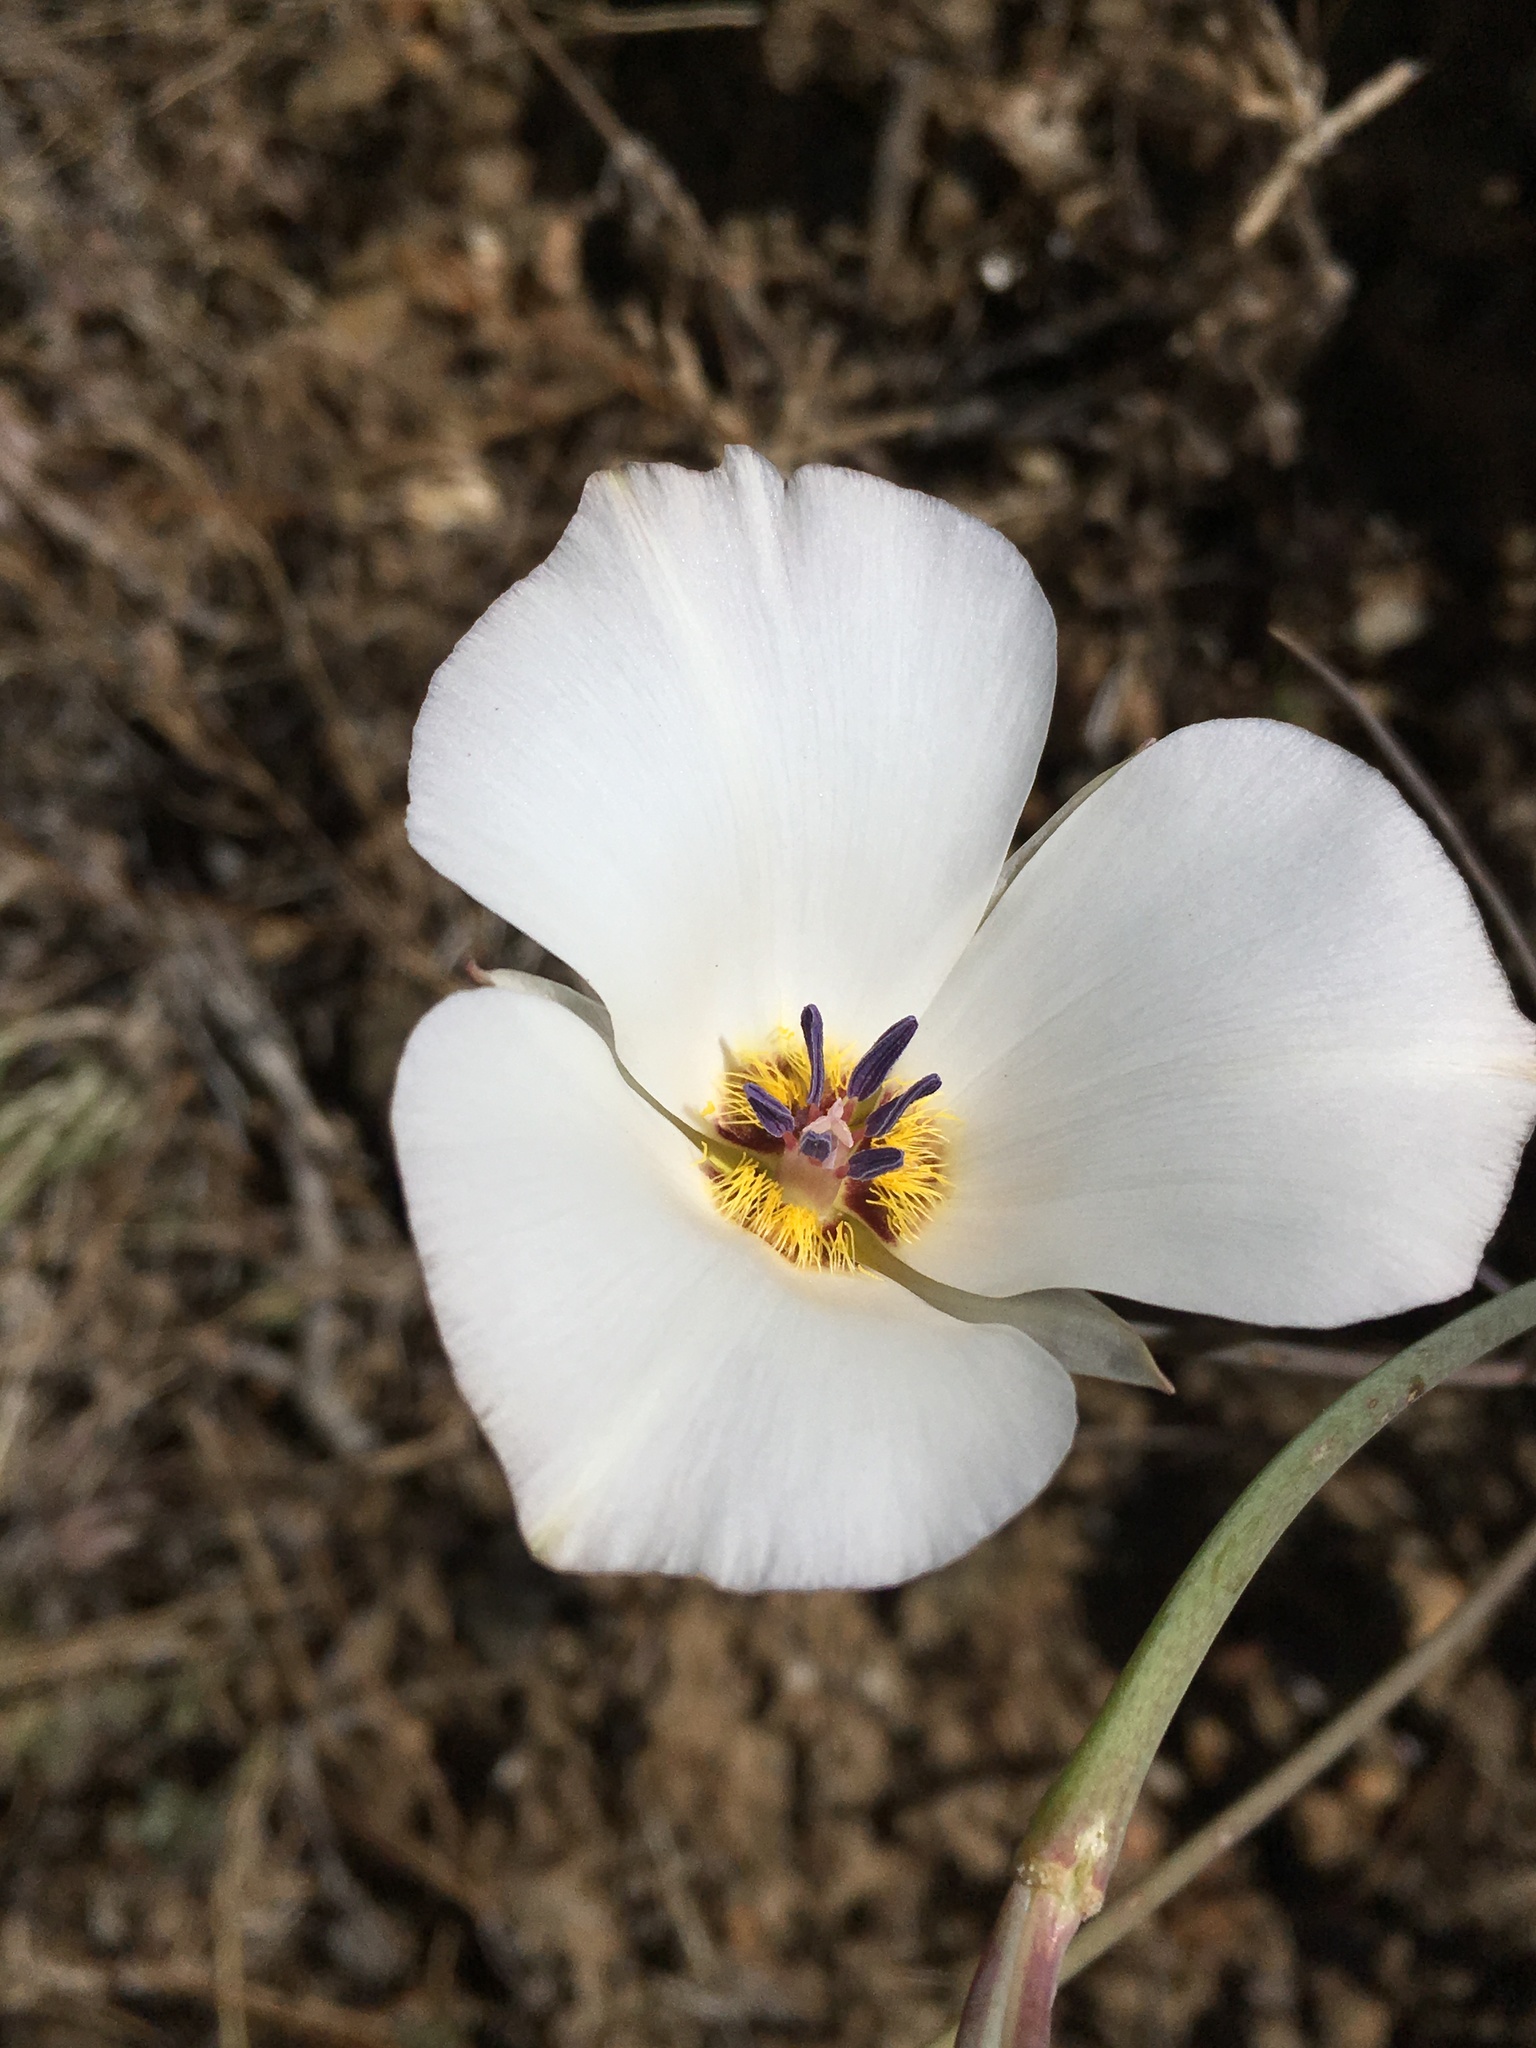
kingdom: Plantae
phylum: Tracheophyta
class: Liliopsida
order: Liliales
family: Liliaceae
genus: Calochortus
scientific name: Calochortus invenustus
